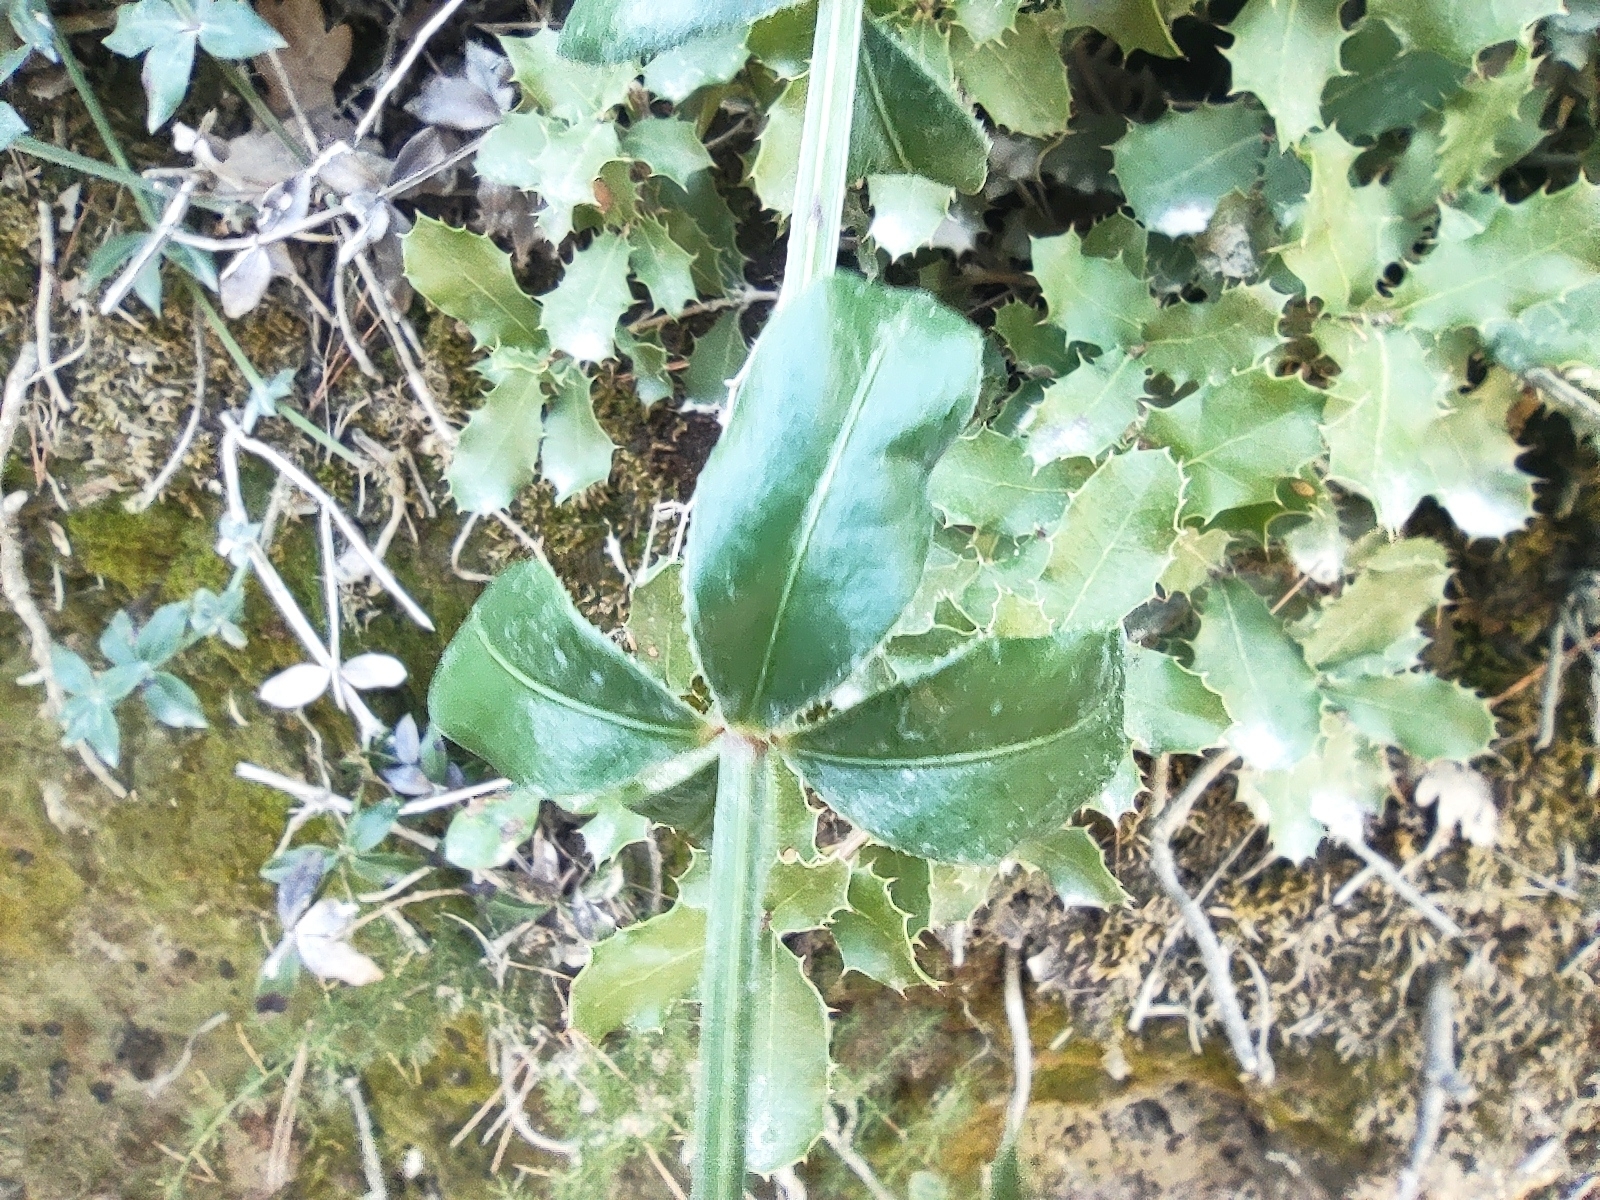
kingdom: Plantae
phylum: Tracheophyta
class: Magnoliopsida
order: Gentianales
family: Rubiaceae
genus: Rubia
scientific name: Rubia peregrina
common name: Wild madder
